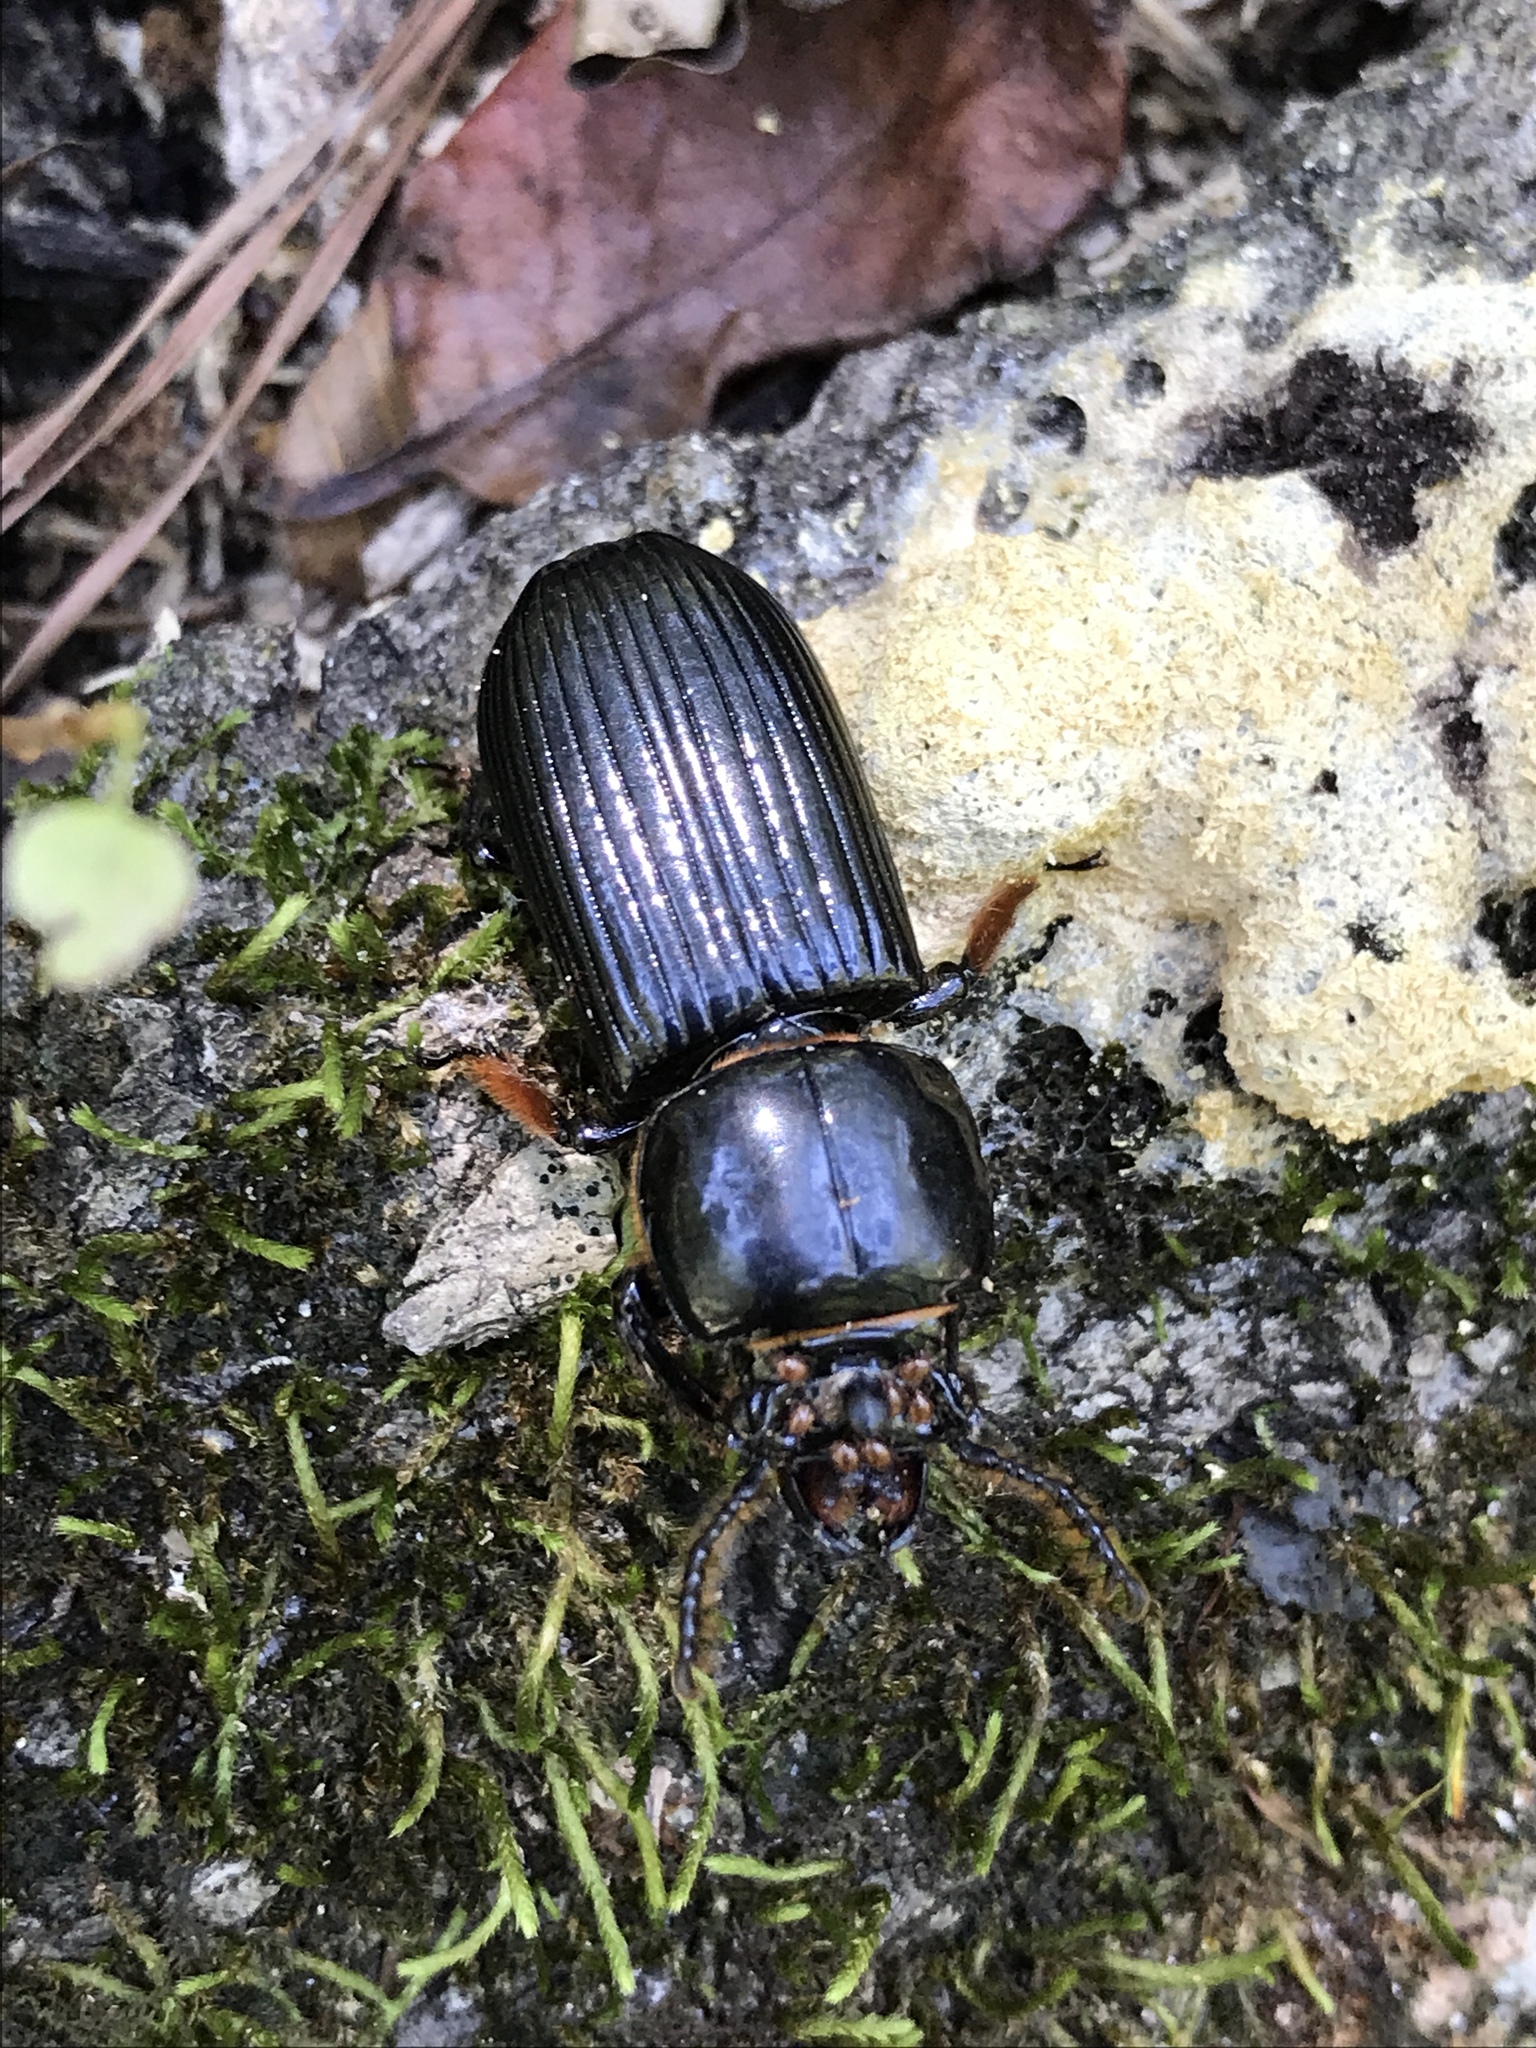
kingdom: Animalia
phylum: Arthropoda
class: Insecta
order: Coleoptera
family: Passalidae
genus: Odontotaenius
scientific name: Odontotaenius disjunctus
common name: Patent leather beetle
